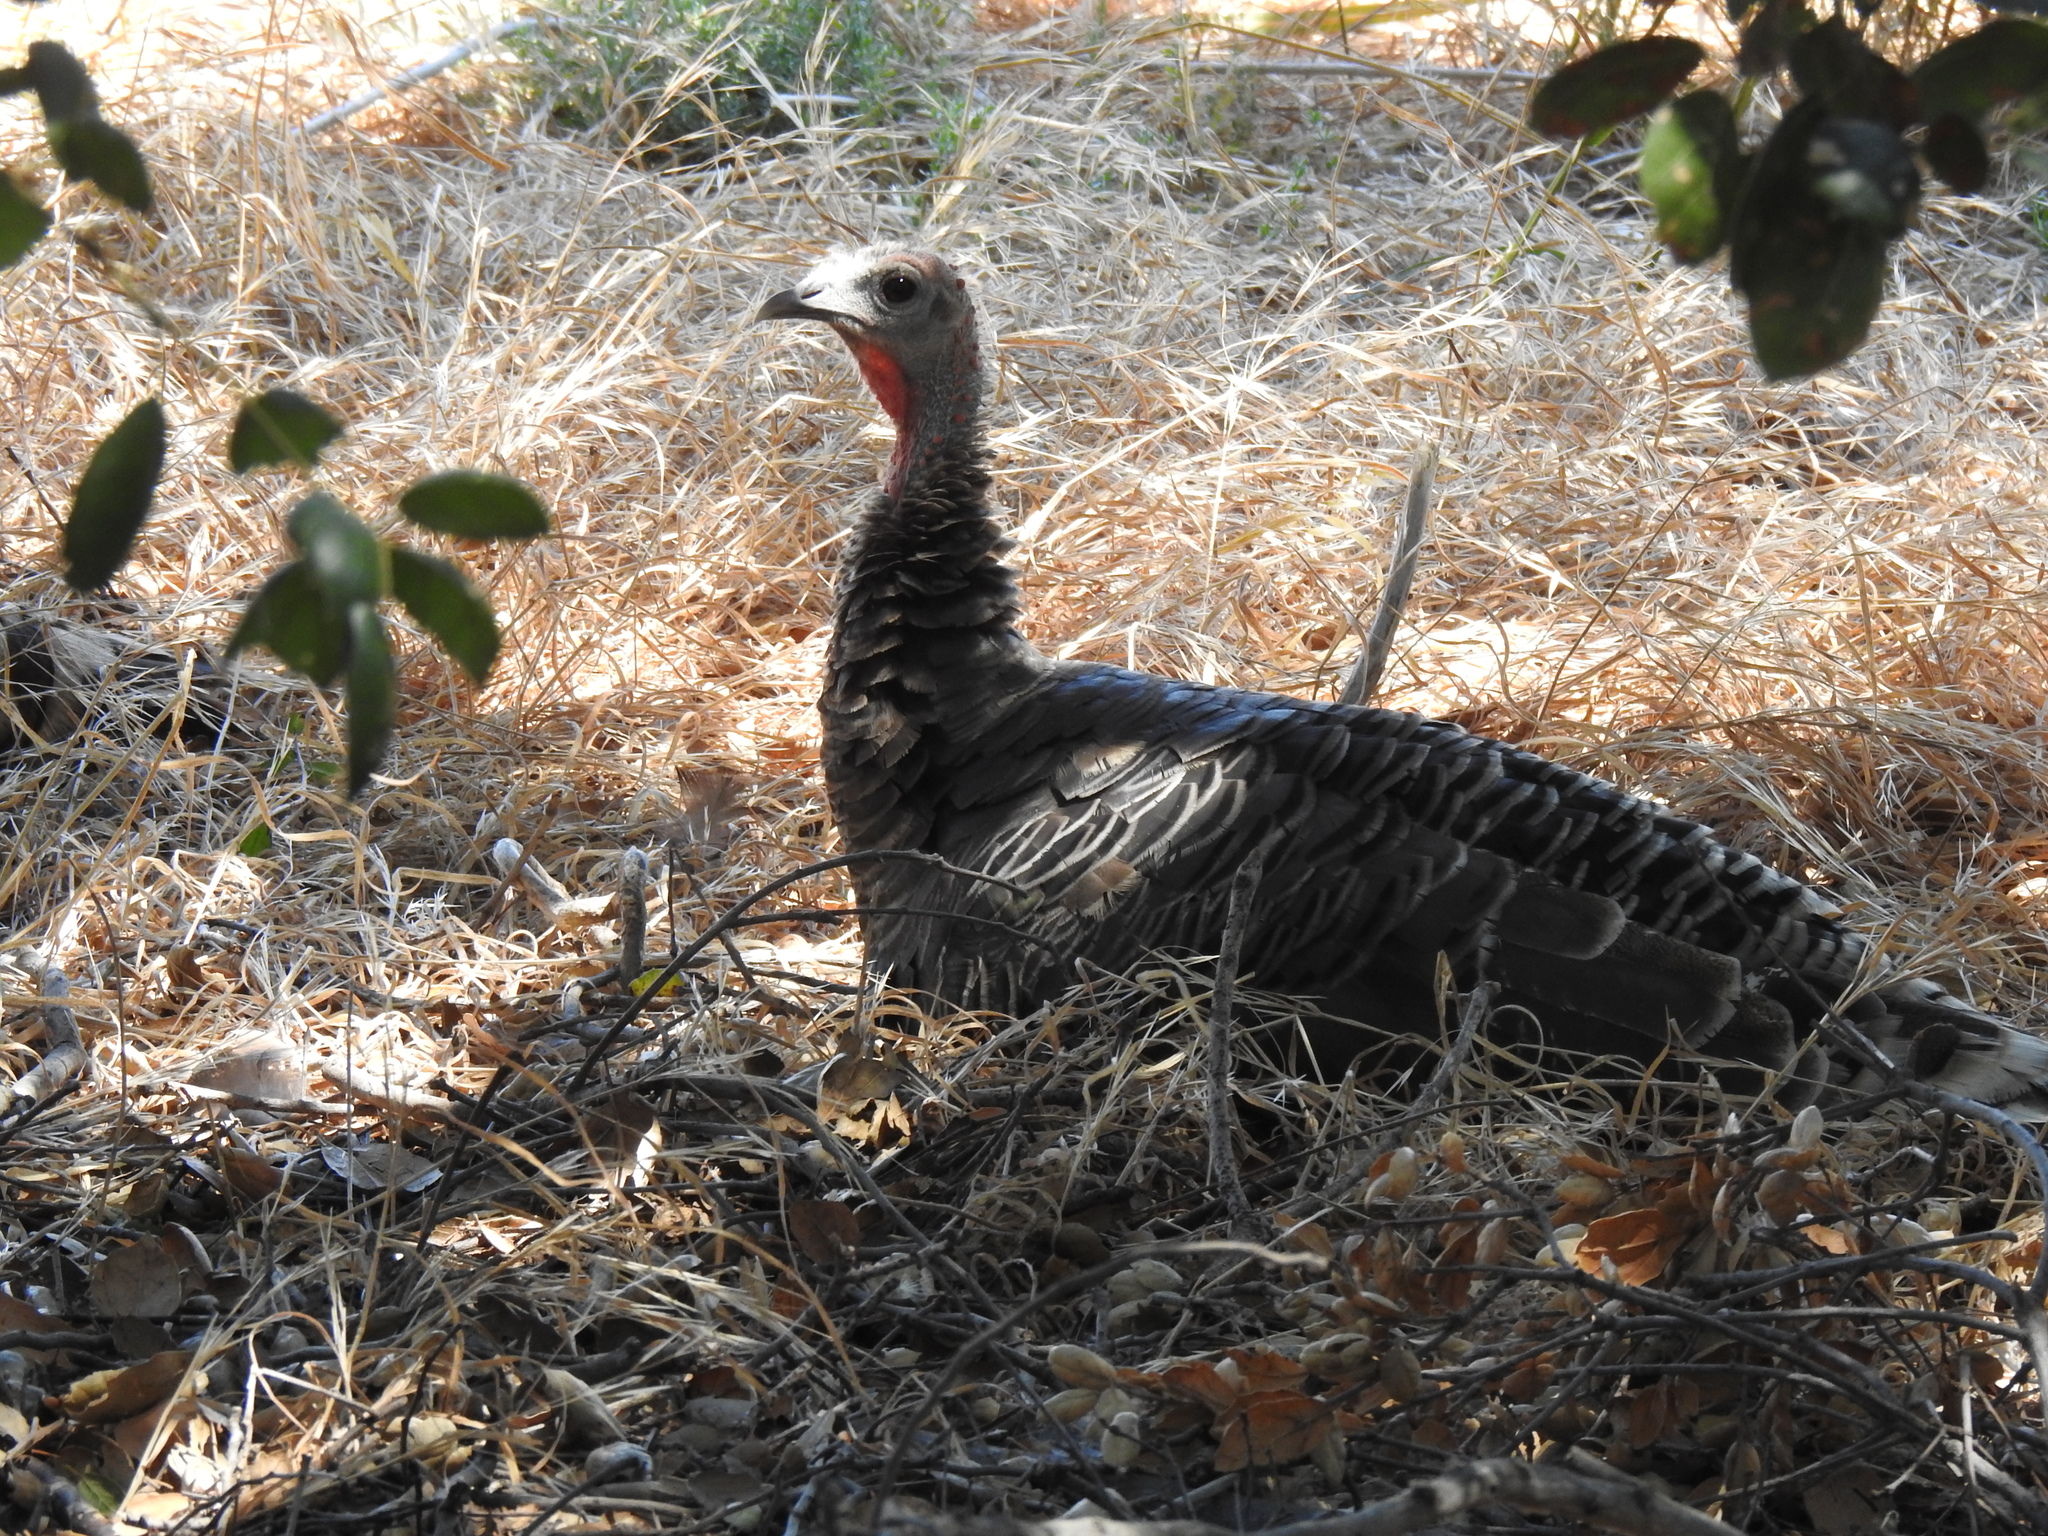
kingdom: Animalia
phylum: Chordata
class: Aves
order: Galliformes
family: Phasianidae
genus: Meleagris
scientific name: Meleagris gallopavo
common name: Wild turkey
